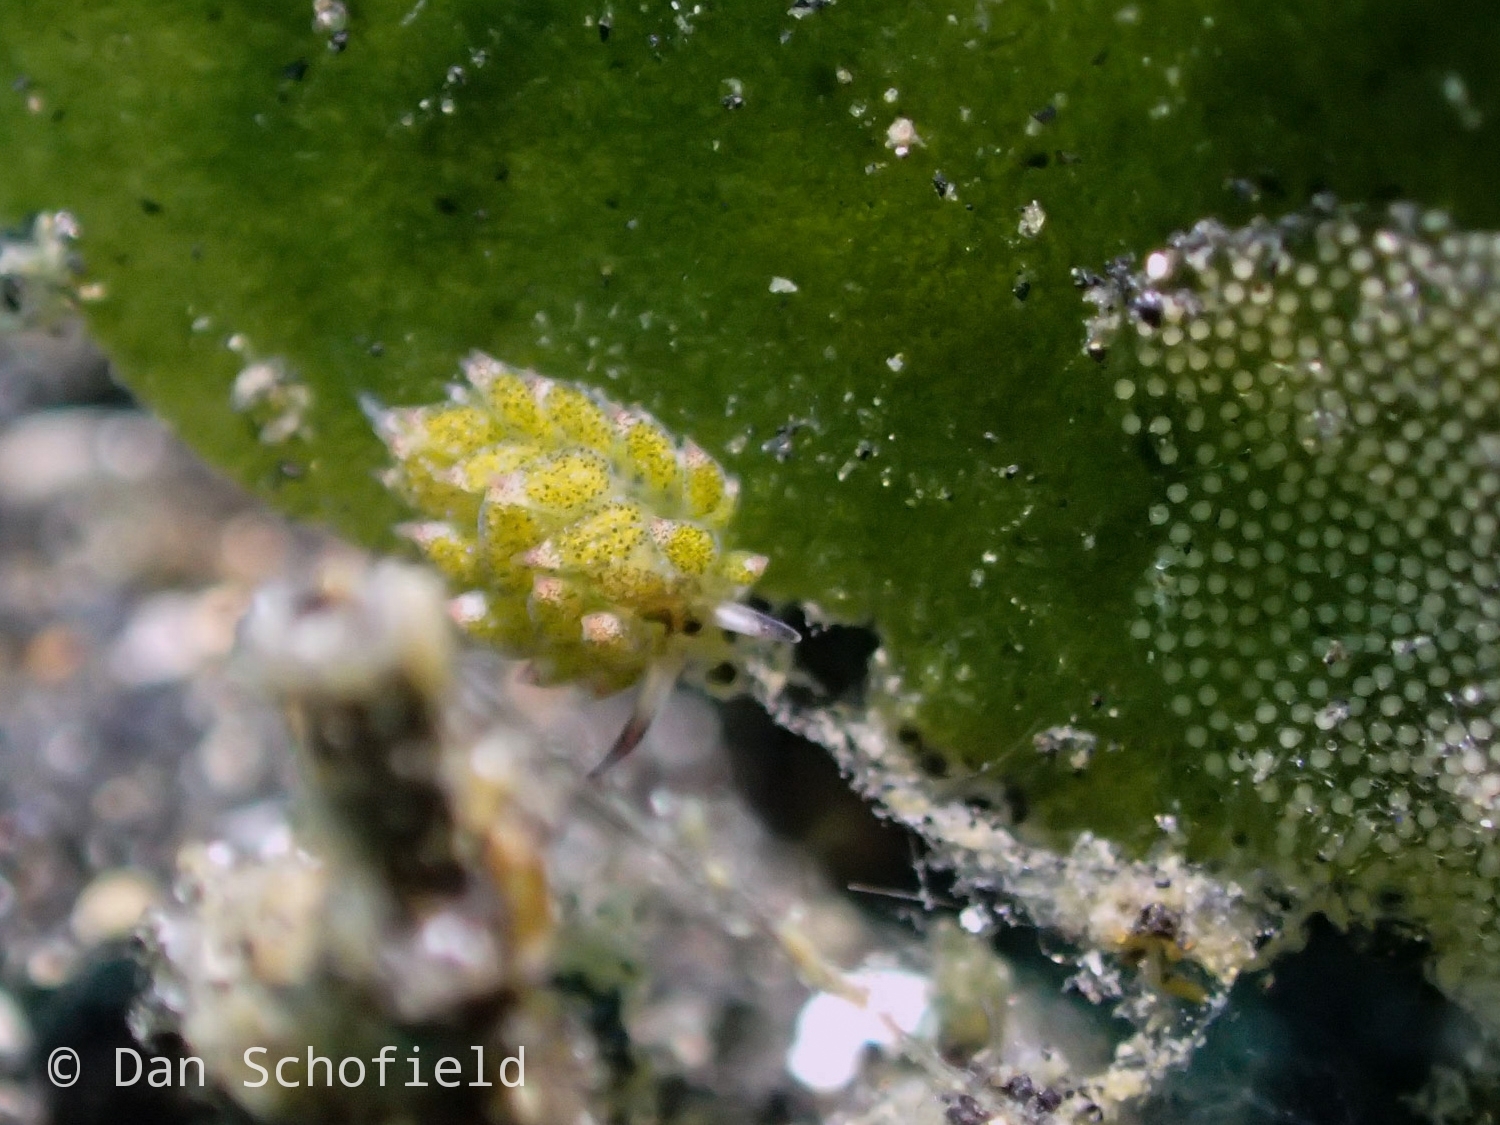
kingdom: Animalia
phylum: Mollusca
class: Gastropoda
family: Costasiellidae
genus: Costasiella
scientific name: Costasiella kuroshimae
